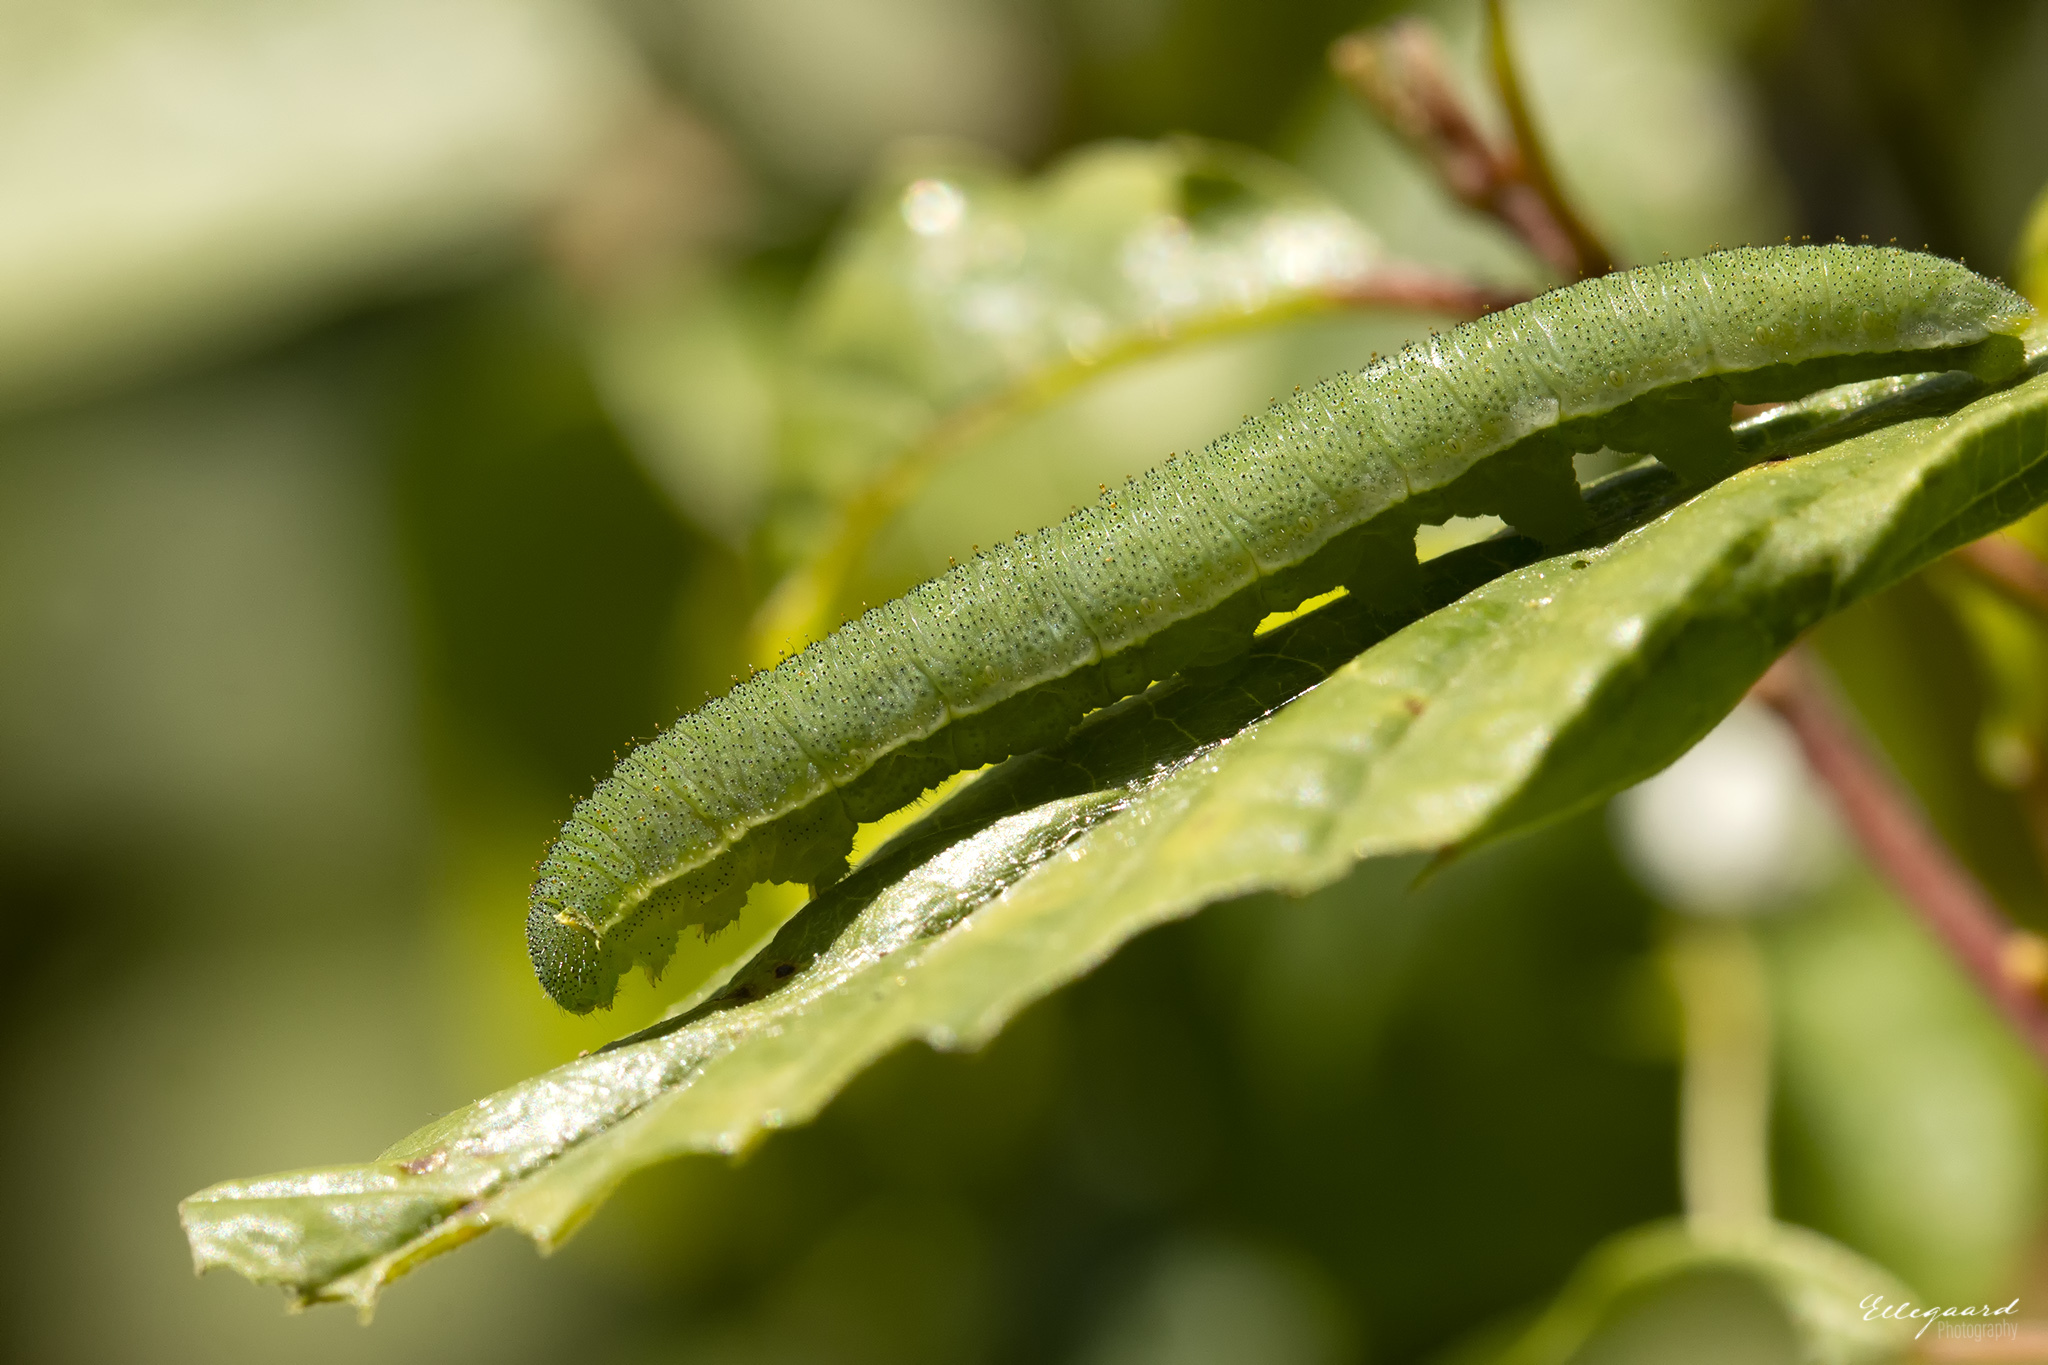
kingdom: Animalia
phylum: Arthropoda
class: Insecta
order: Lepidoptera
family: Pieridae
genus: Gonepteryx
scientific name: Gonepteryx rhamni
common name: Brimstone
